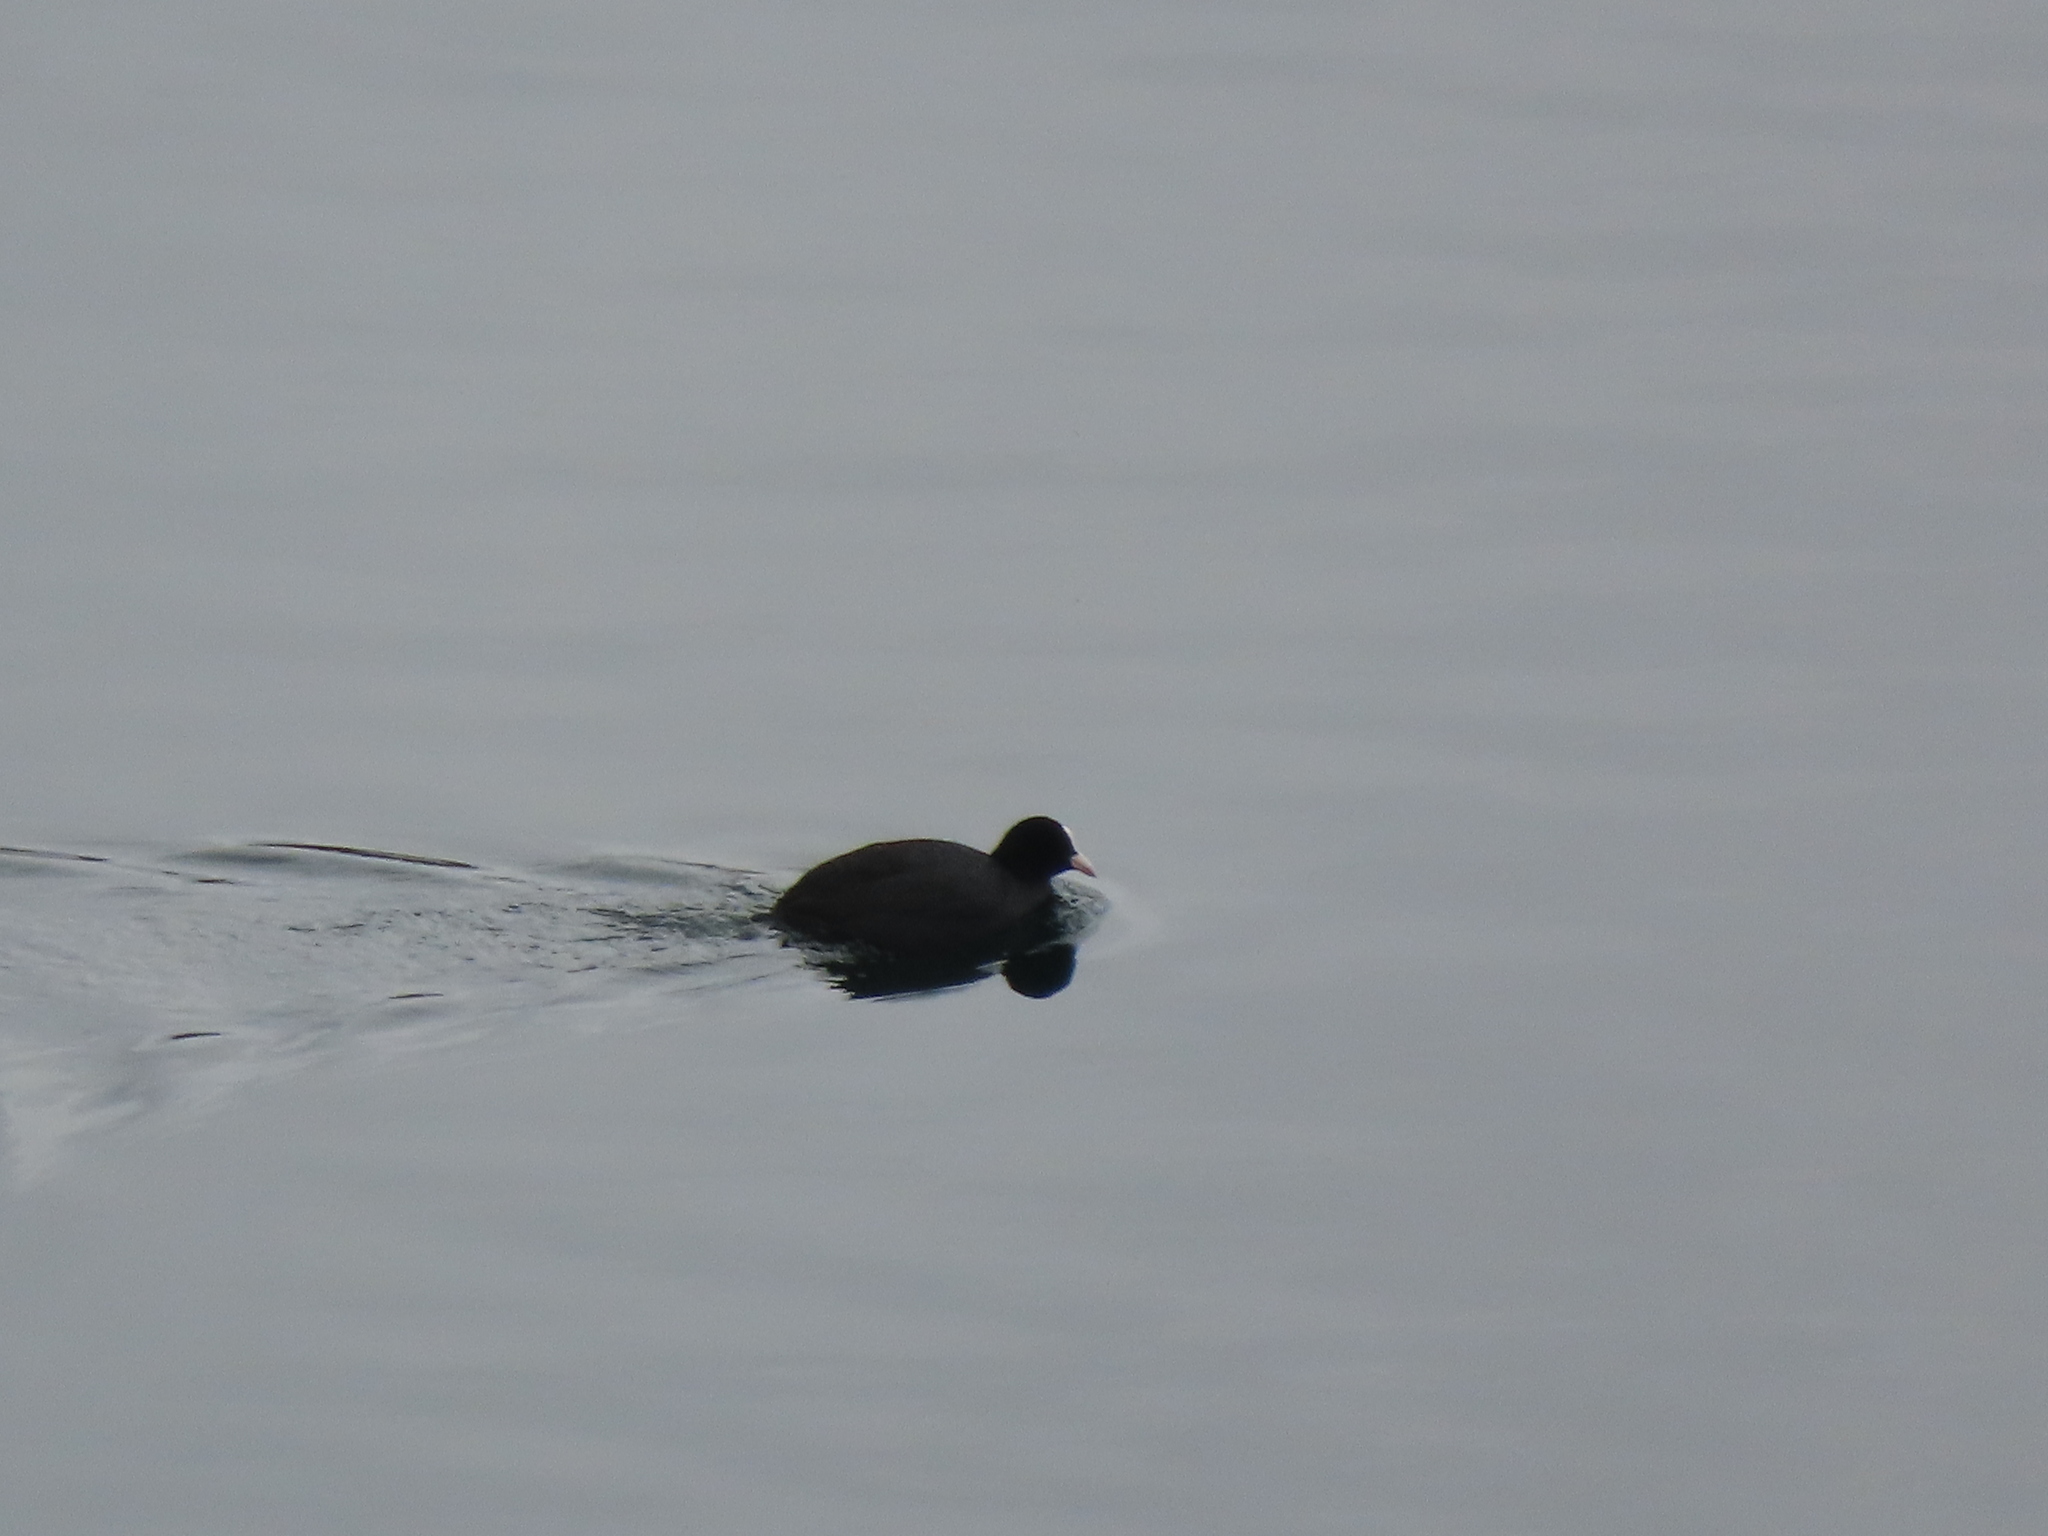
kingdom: Animalia
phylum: Chordata
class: Aves
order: Gruiformes
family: Rallidae
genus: Fulica
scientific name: Fulica atra
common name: Eurasian coot
